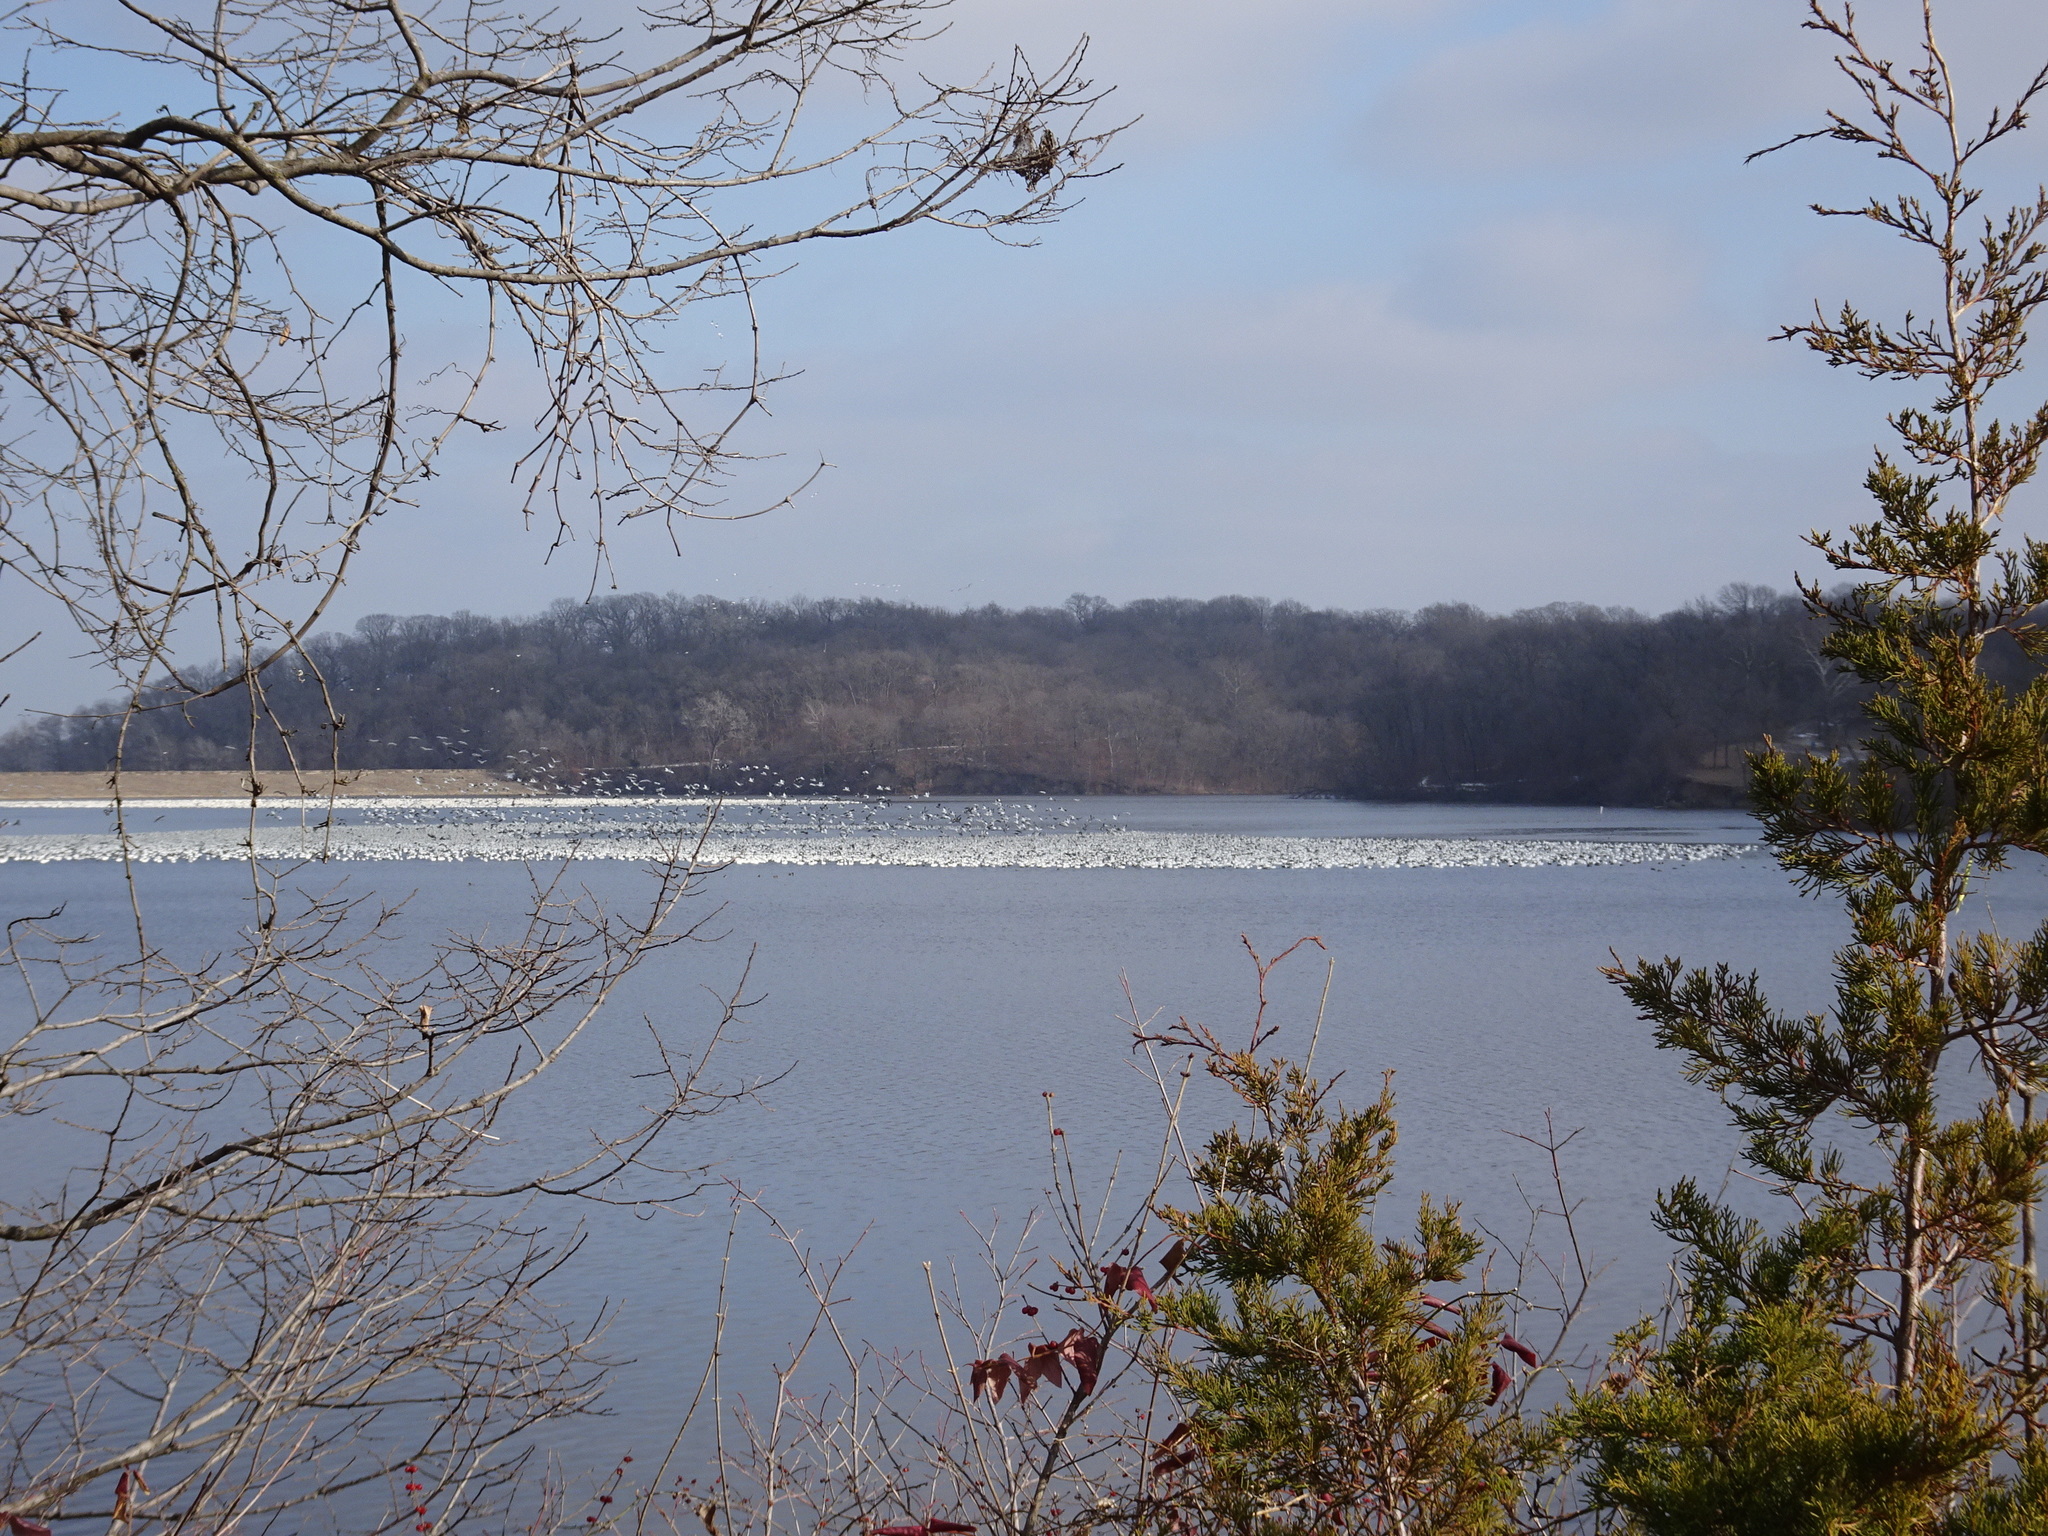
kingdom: Animalia
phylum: Chordata
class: Aves
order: Anseriformes
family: Anatidae
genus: Anser
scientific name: Anser caerulescens
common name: Snow goose
